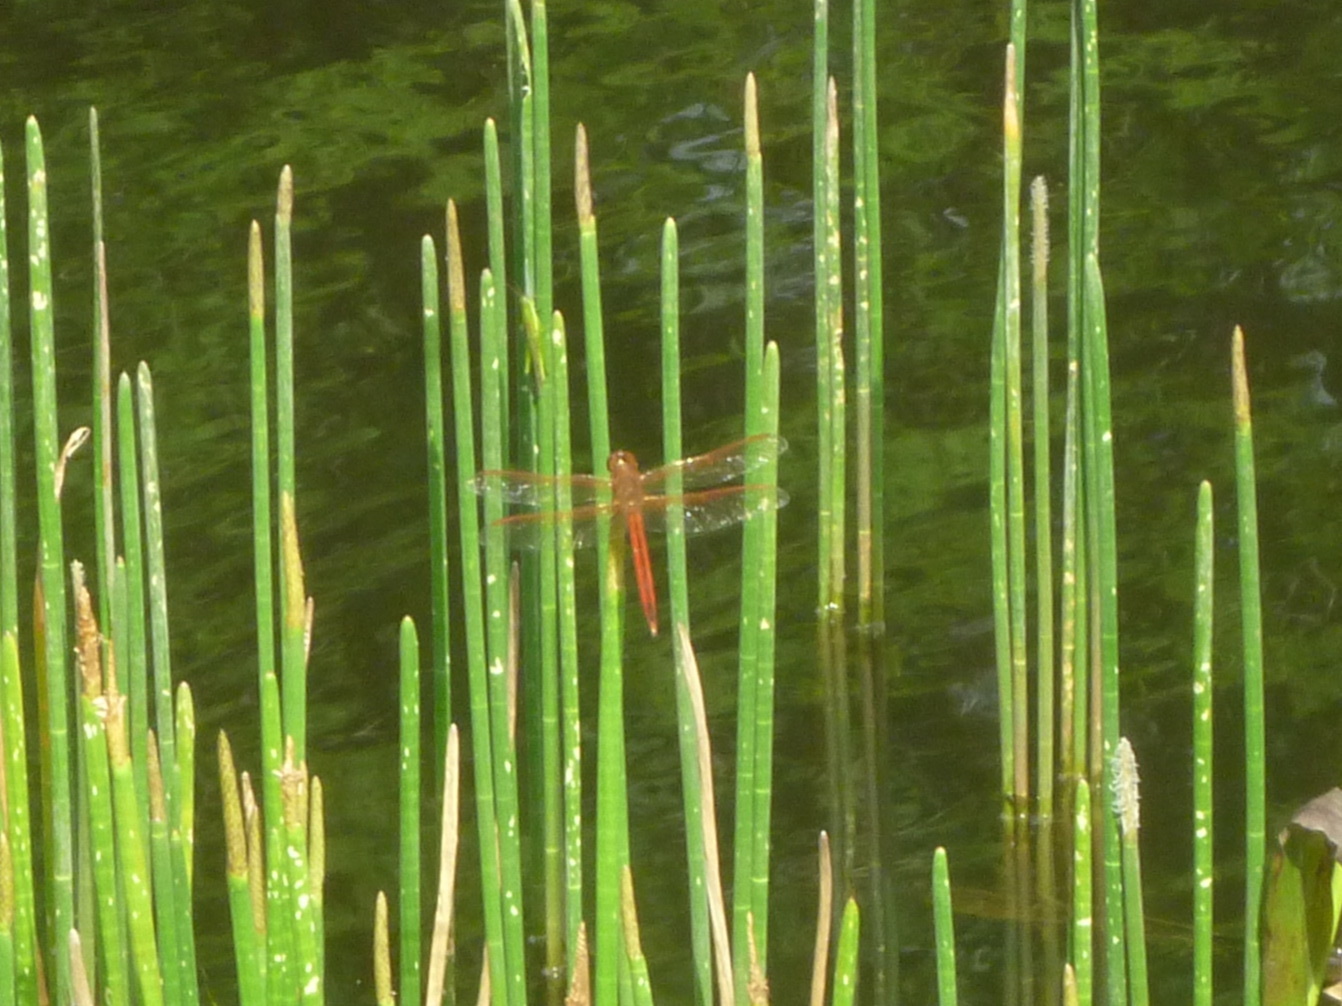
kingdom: Animalia
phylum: Arthropoda
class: Insecta
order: Odonata
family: Libellulidae
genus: Libellula
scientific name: Libellula needhami
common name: Needham's skimmer
